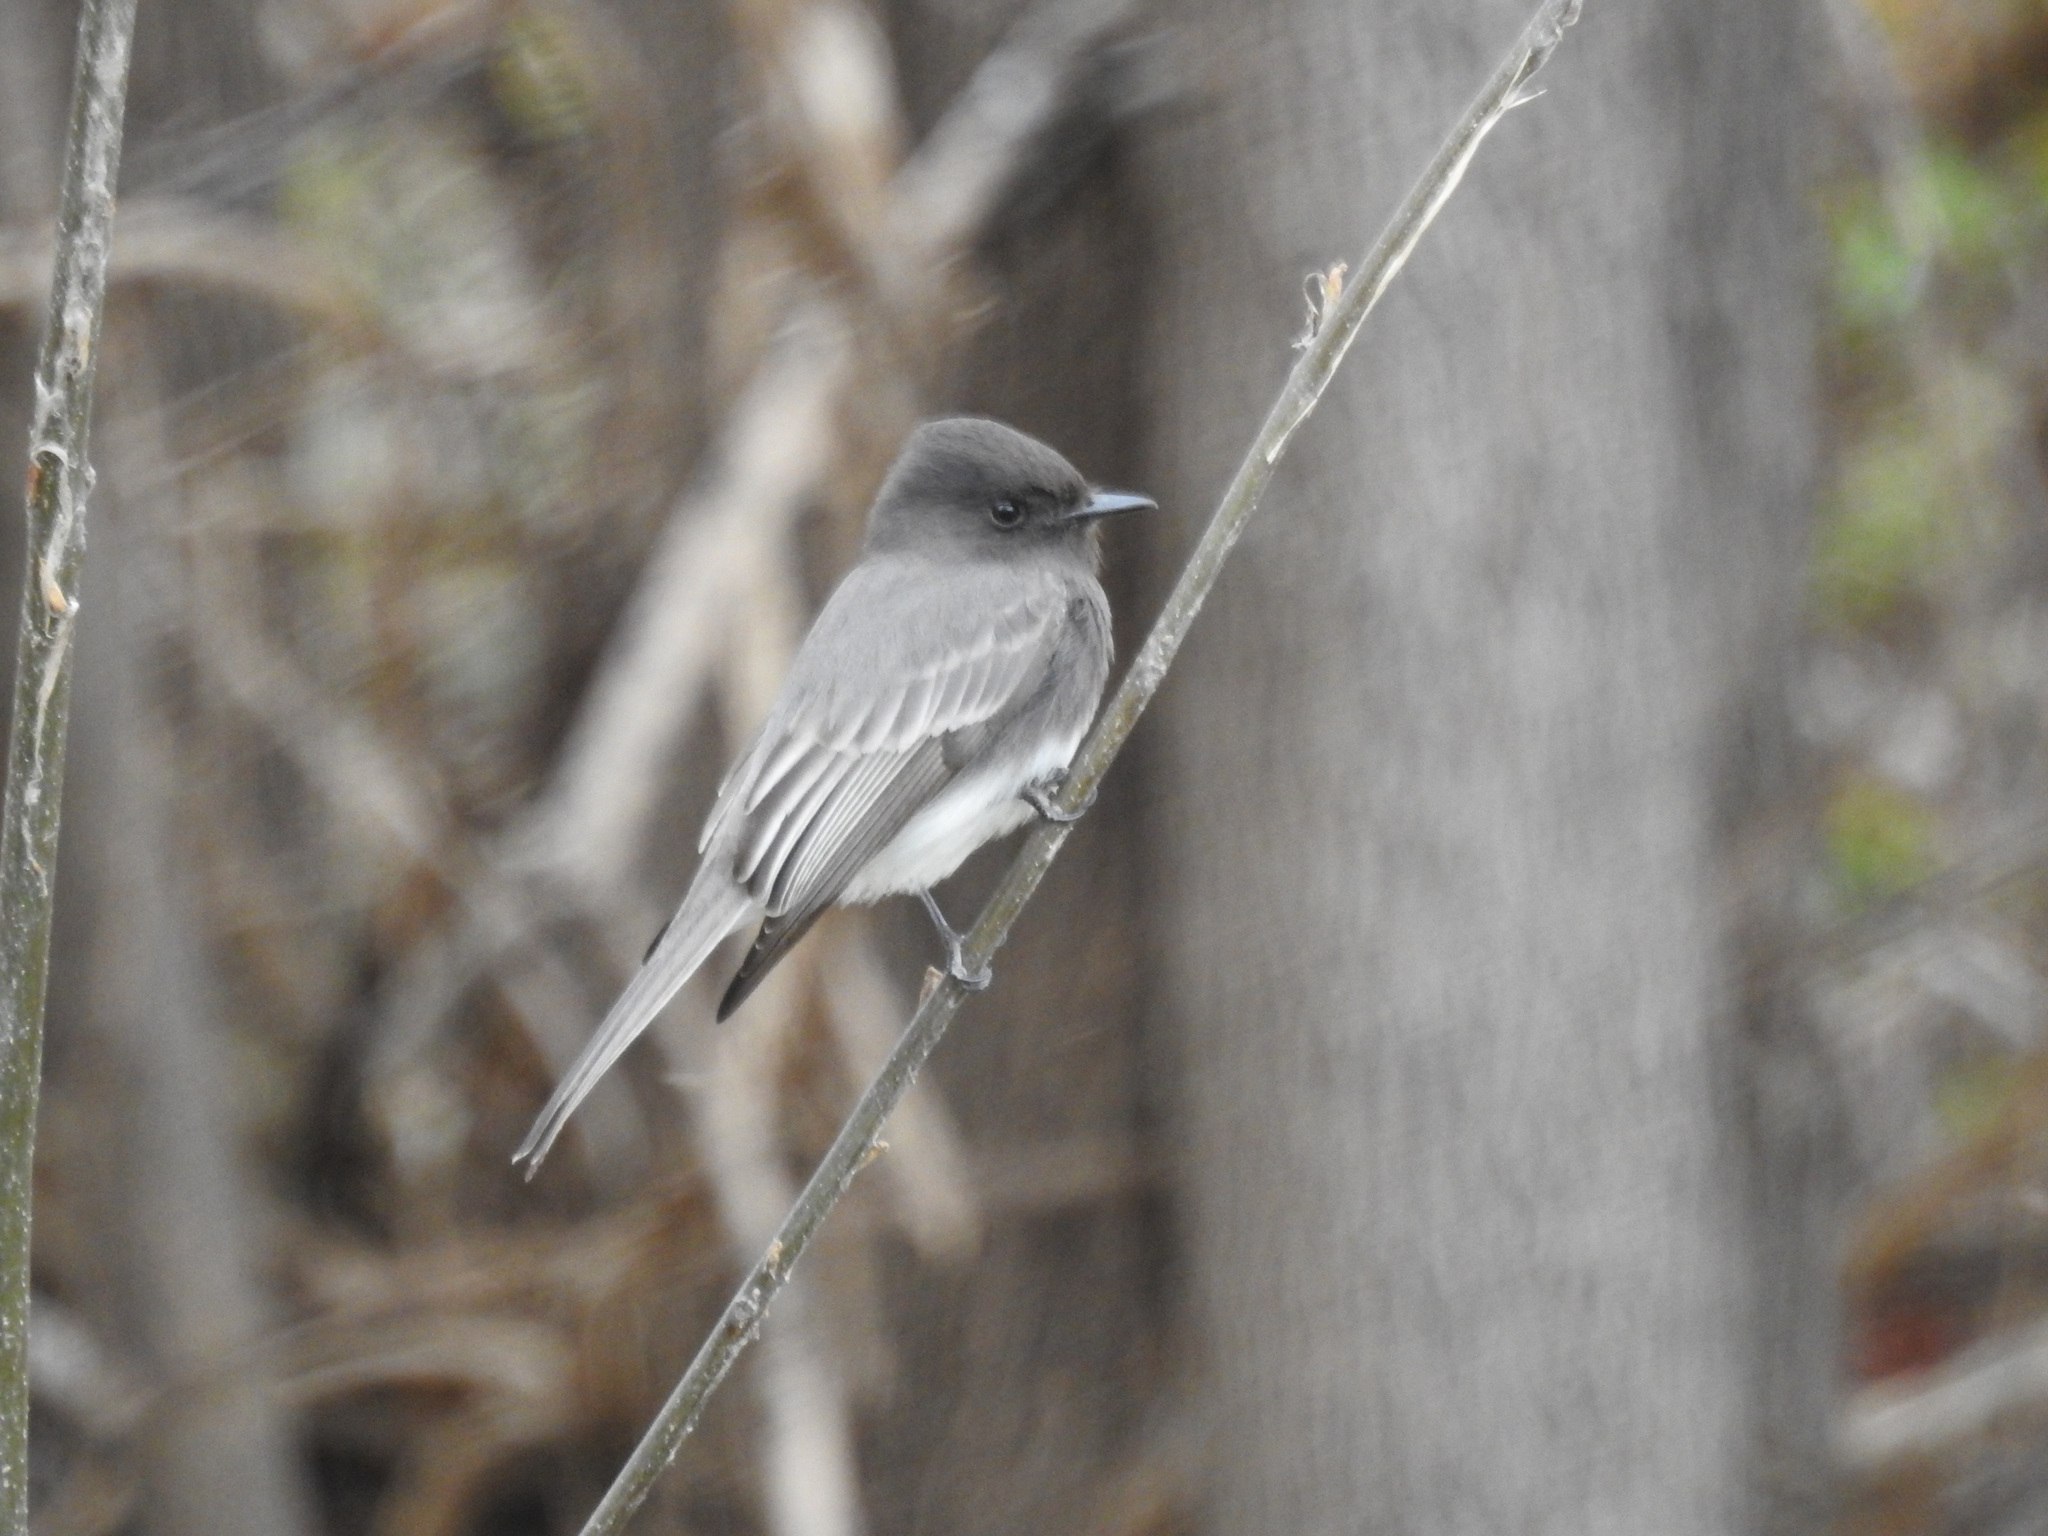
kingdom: Animalia
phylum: Chordata
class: Aves
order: Passeriformes
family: Tyrannidae
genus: Sayornis
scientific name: Sayornis nigricans
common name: Black phoebe
